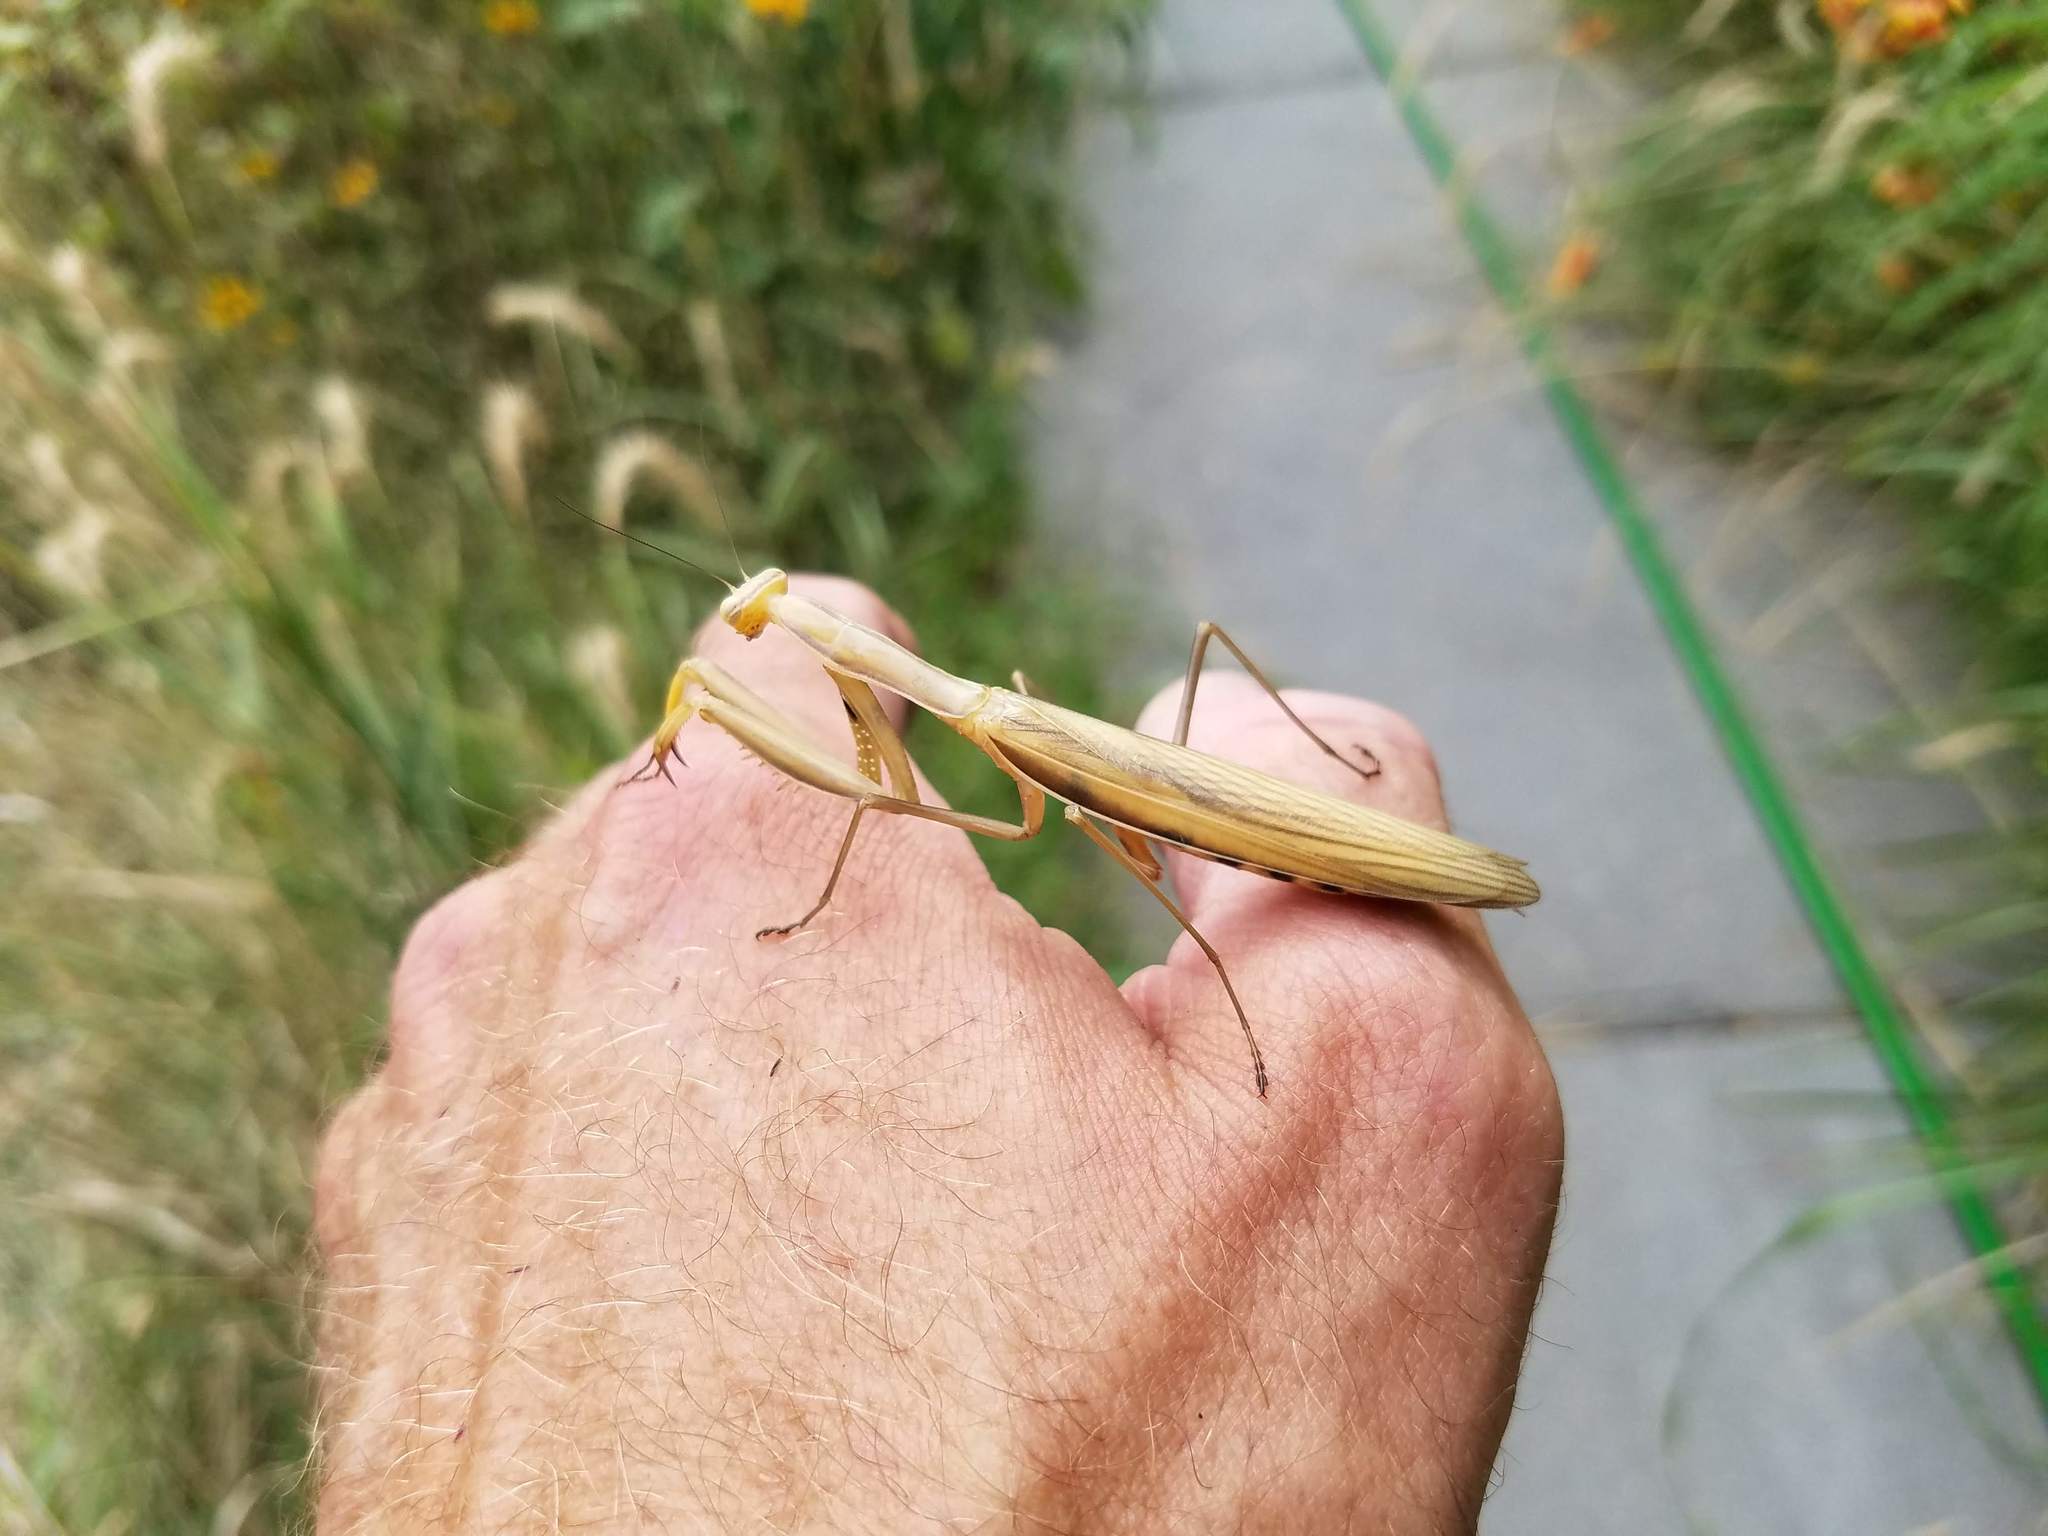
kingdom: Animalia
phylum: Arthropoda
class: Insecta
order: Mantodea
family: Mantidae
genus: Mantis
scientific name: Mantis religiosa
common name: Praying mantis
